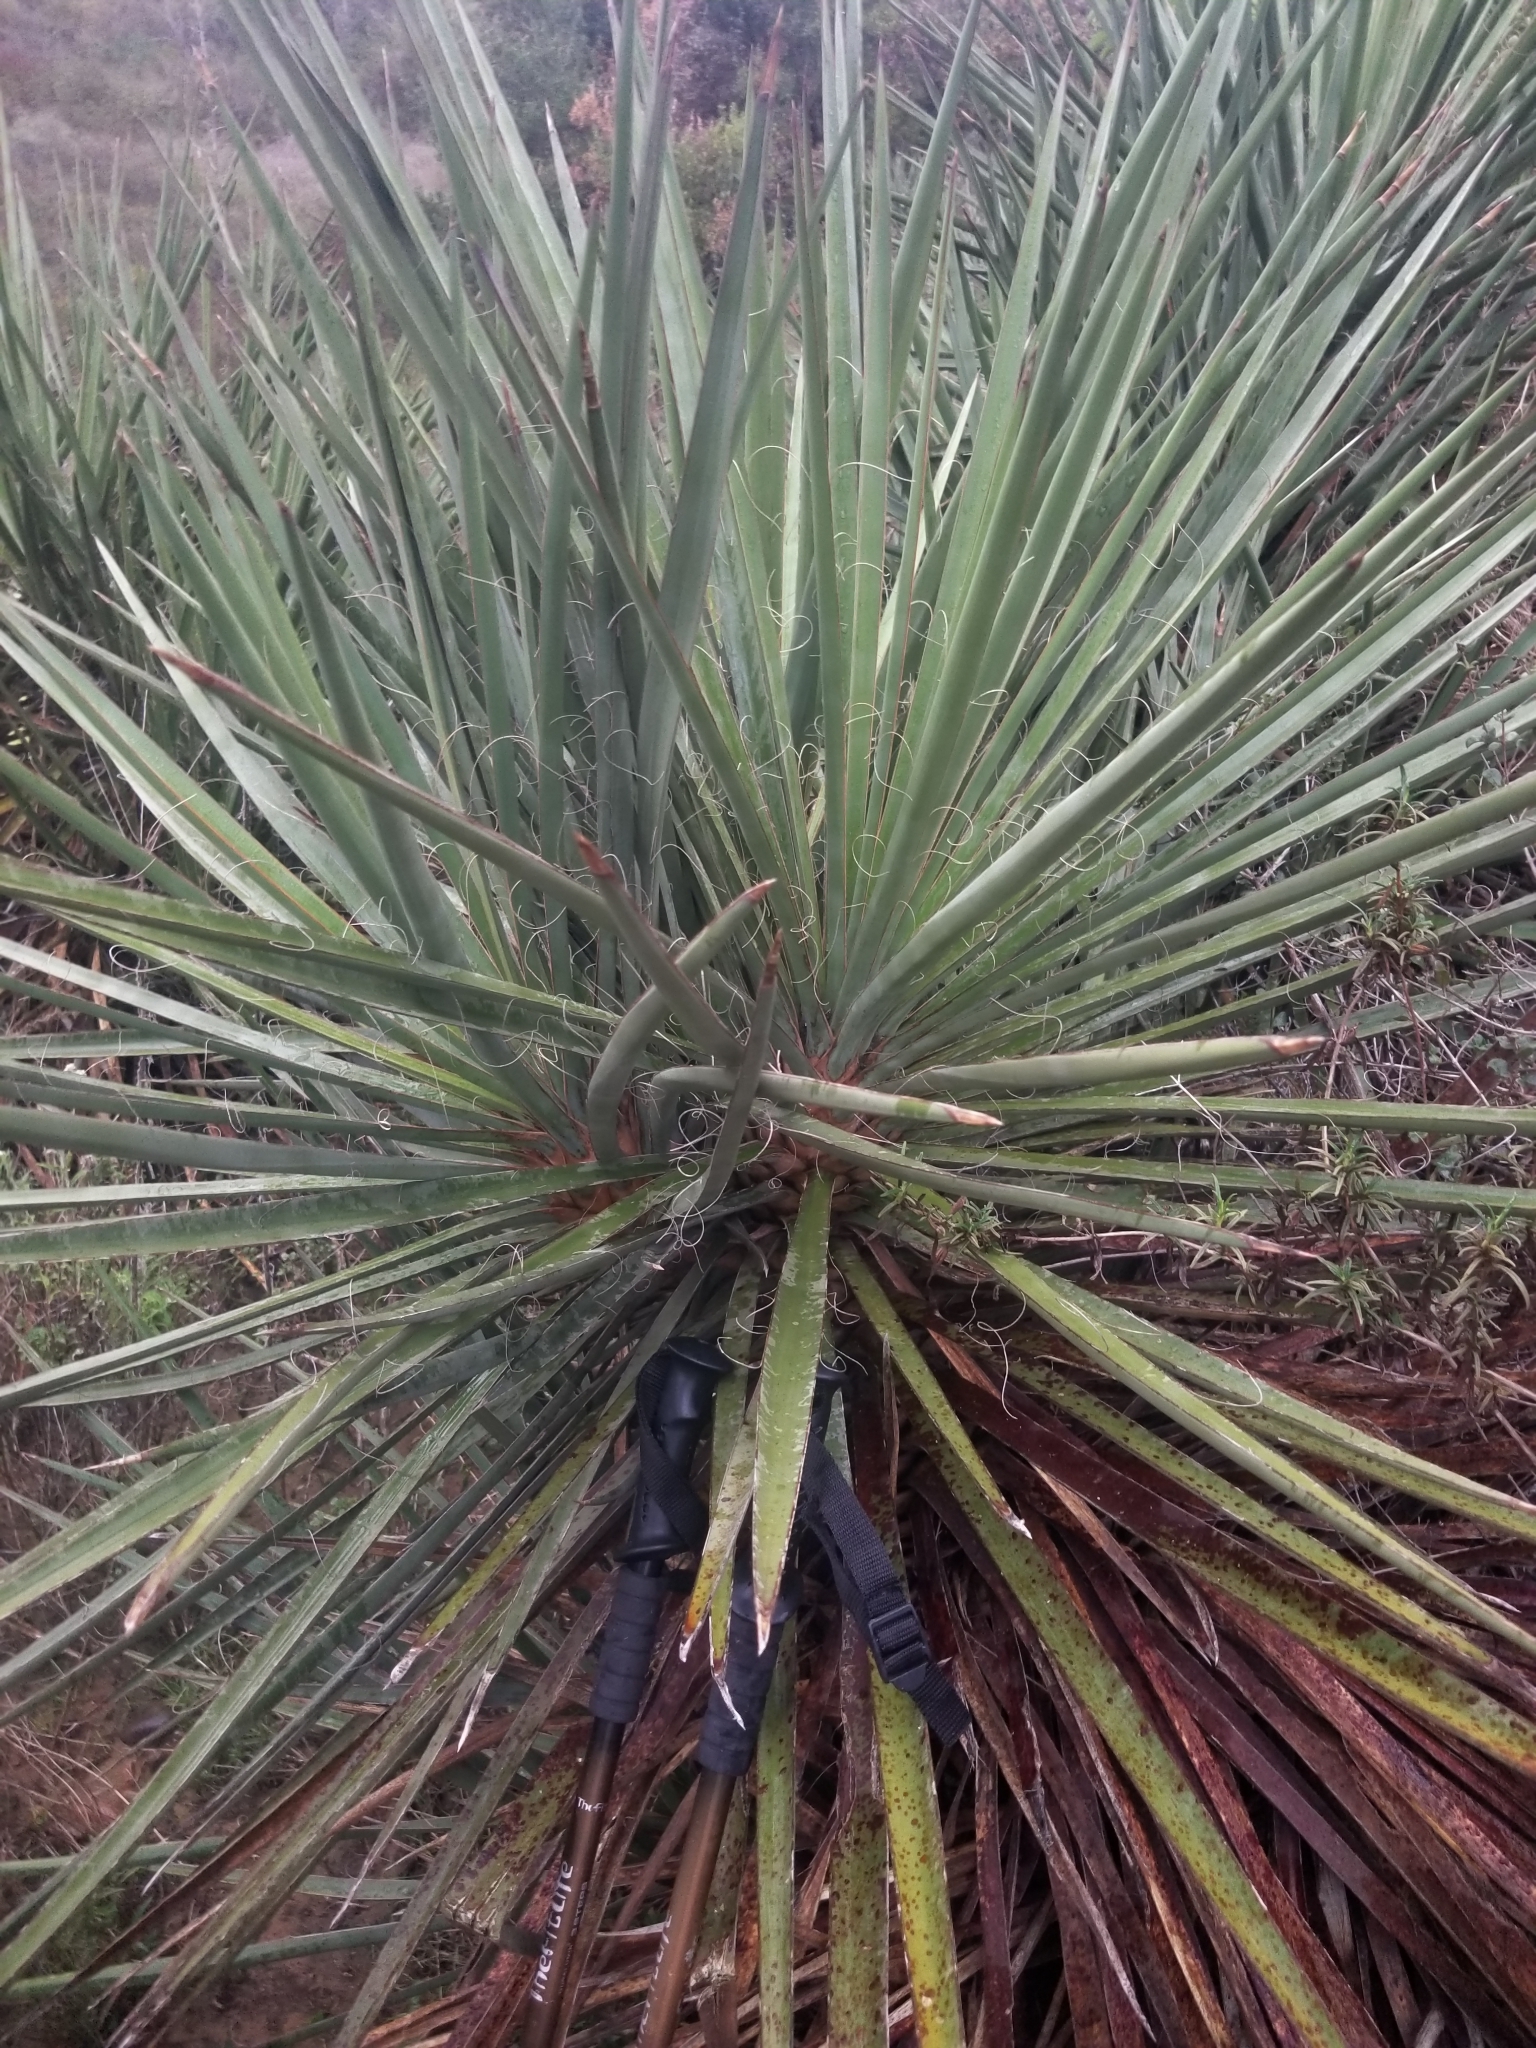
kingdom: Plantae
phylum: Tracheophyta
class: Liliopsida
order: Asparagales
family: Asparagaceae
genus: Yucca
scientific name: Yucca schidigera
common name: Mojave yucca
